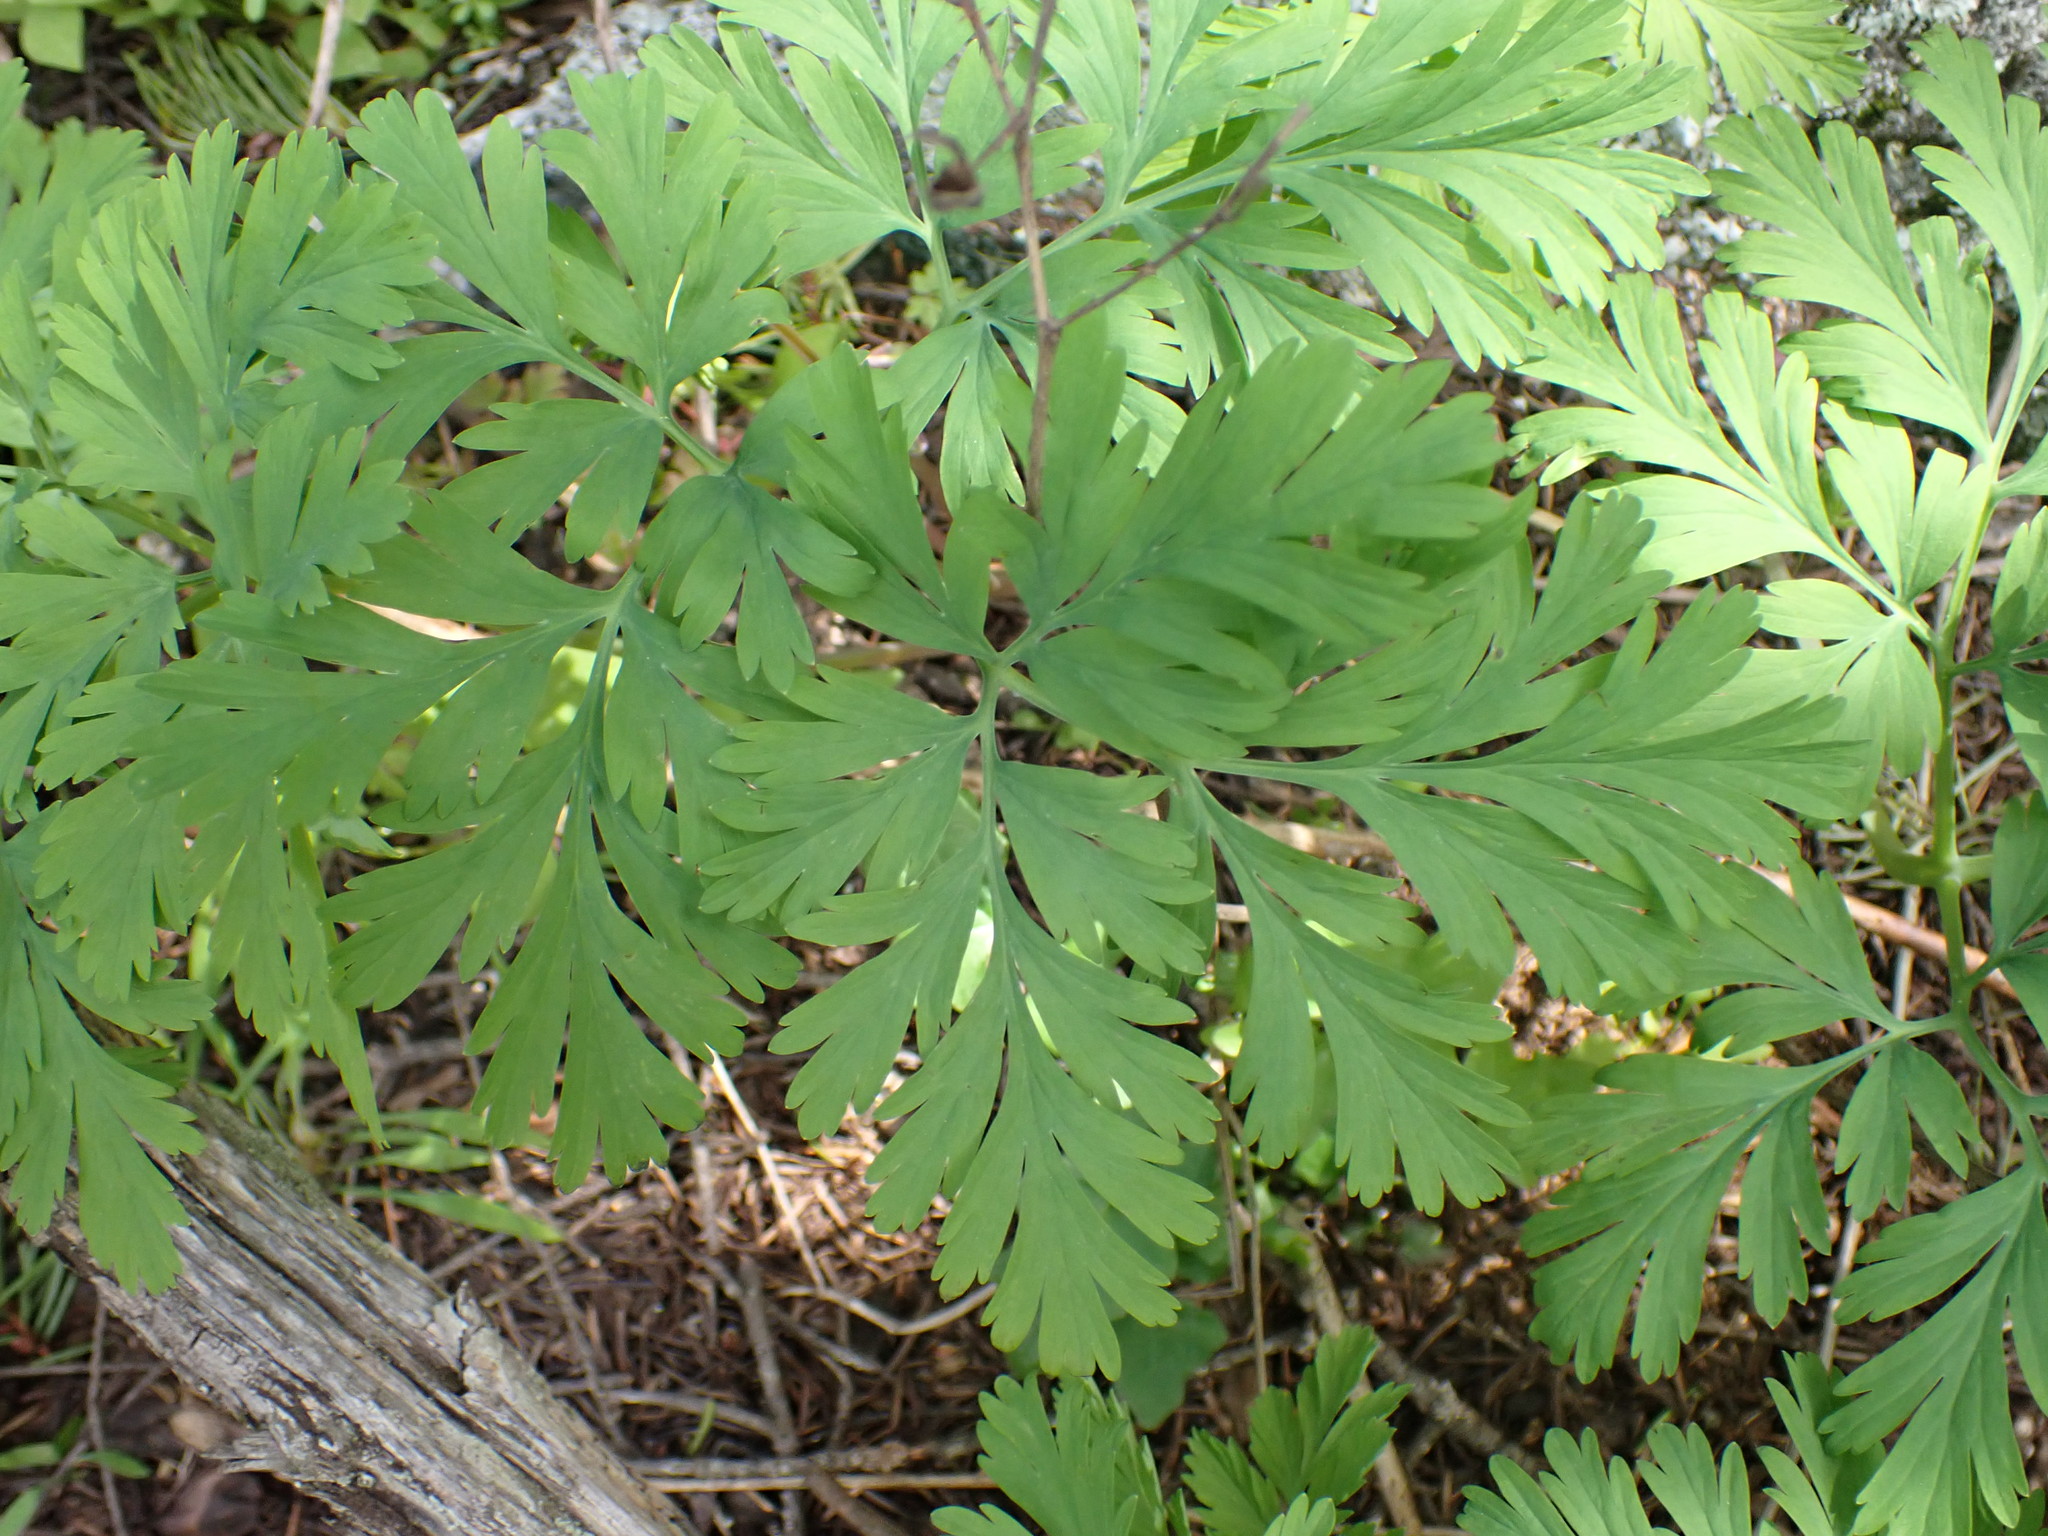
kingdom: Plantae
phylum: Tracheophyta
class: Magnoliopsida
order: Ranunculales
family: Papaveraceae
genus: Dicentra
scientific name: Dicentra formosa
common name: Bleeding-heart
